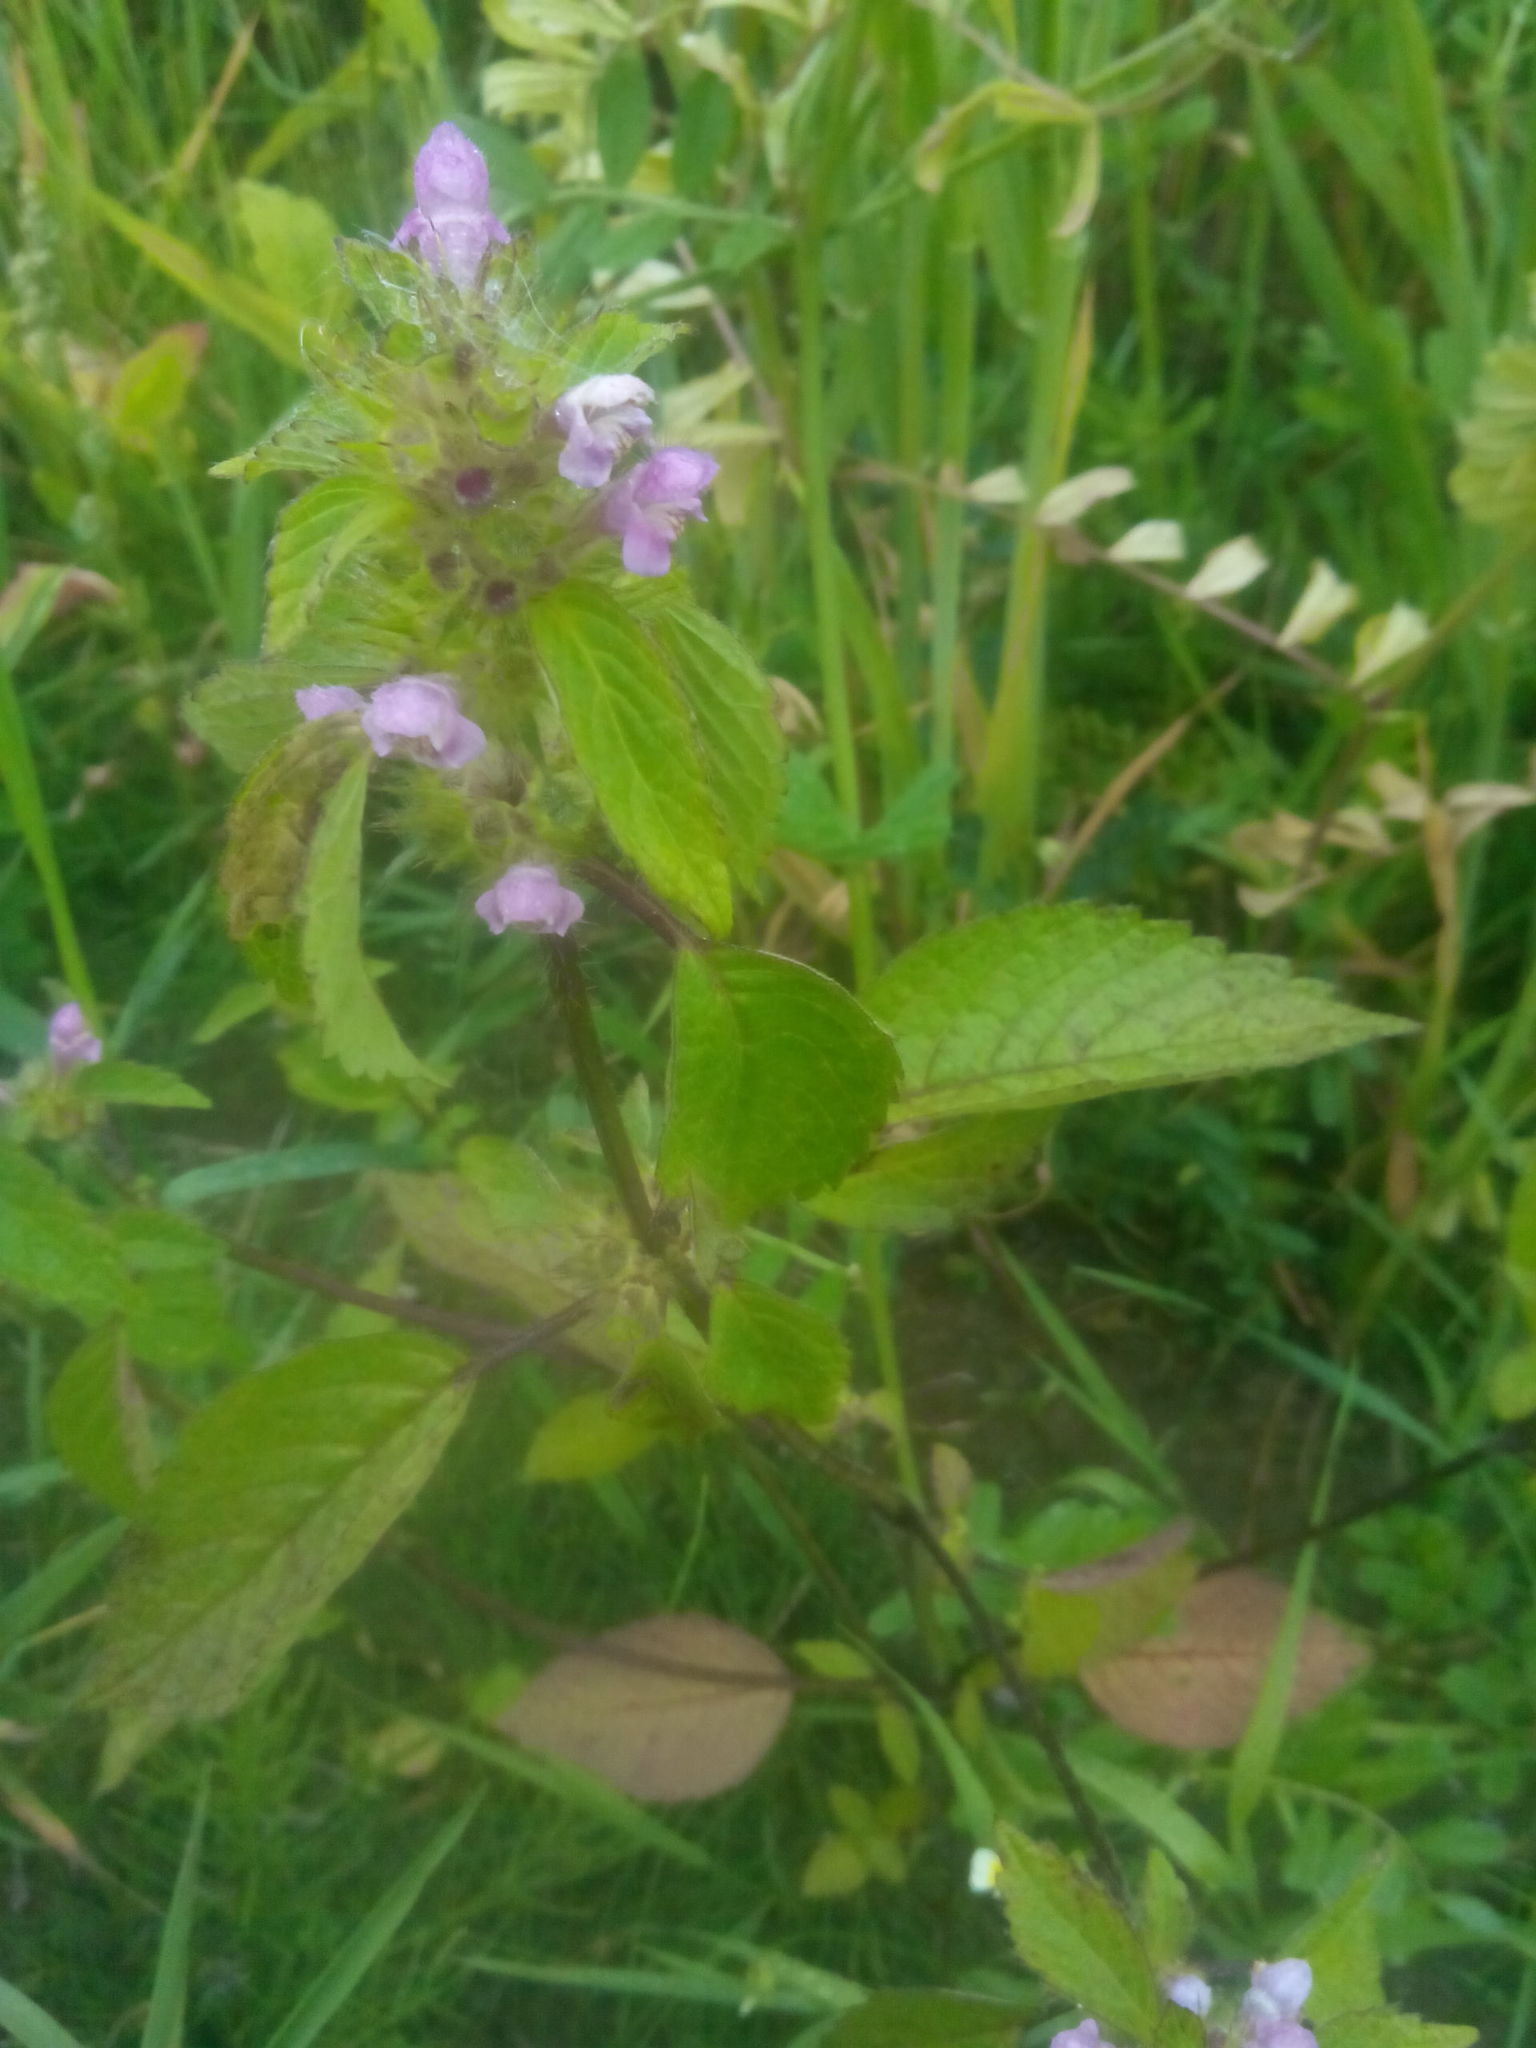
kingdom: Plantae
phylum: Tracheophyta
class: Magnoliopsida
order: Lamiales
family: Lamiaceae
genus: Galeopsis
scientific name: Galeopsis bifida
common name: Bifid hemp-nettle
